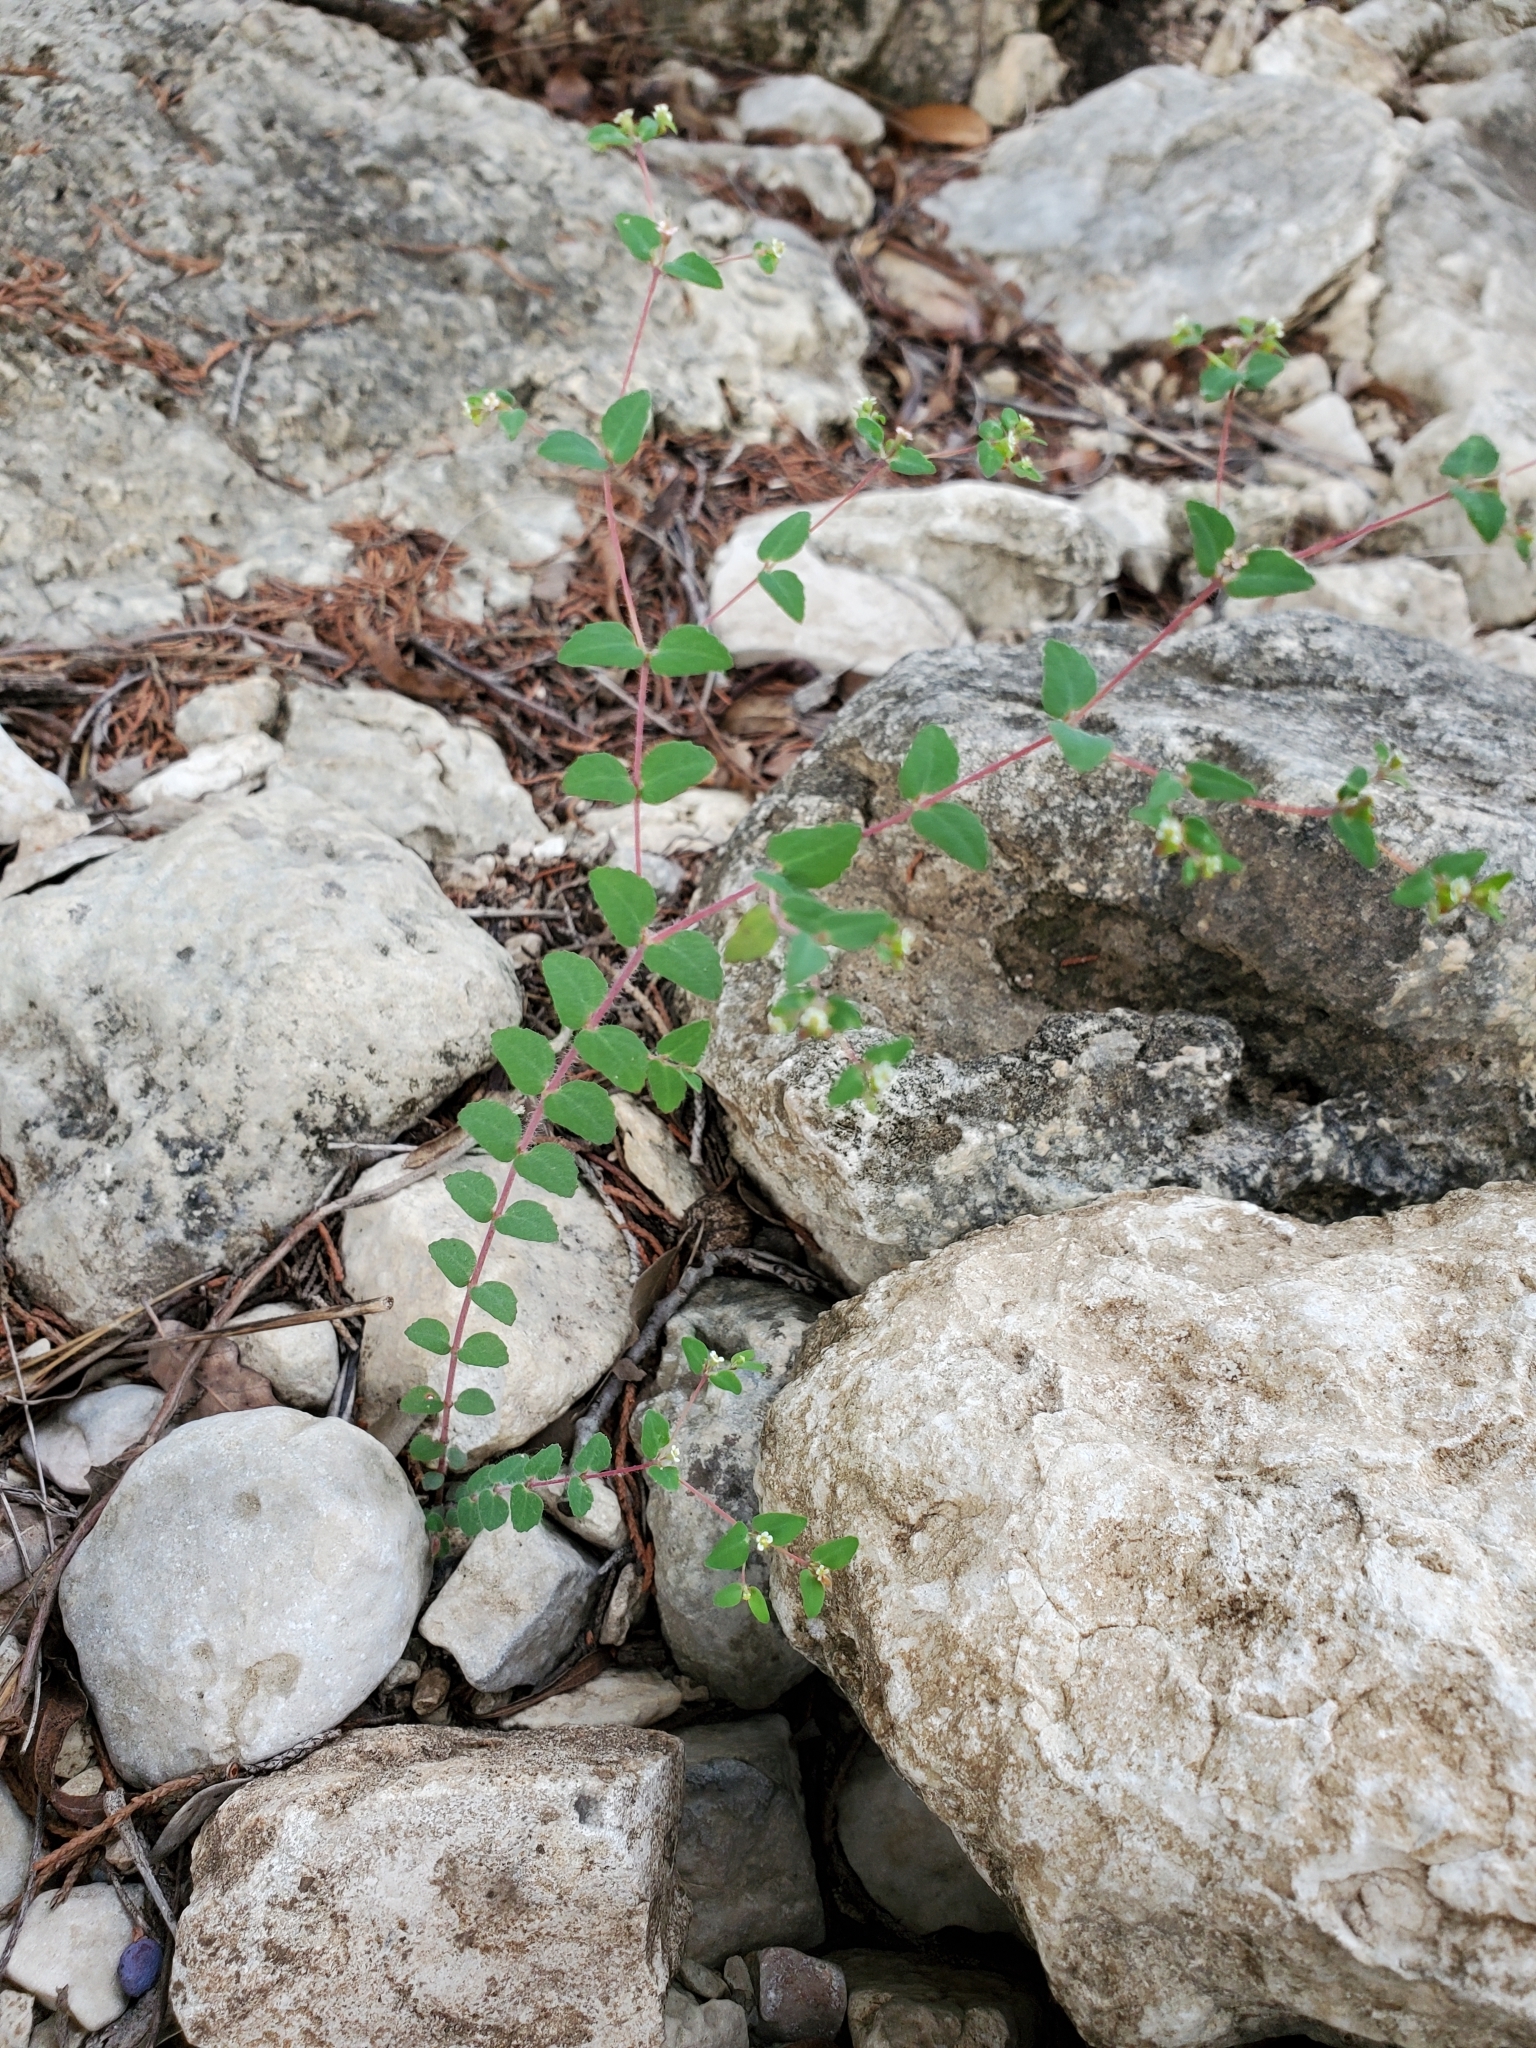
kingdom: Plantae
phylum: Tracheophyta
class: Magnoliopsida
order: Malpighiales
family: Euphorbiaceae
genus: Euphorbia
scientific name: Euphorbia villifera
